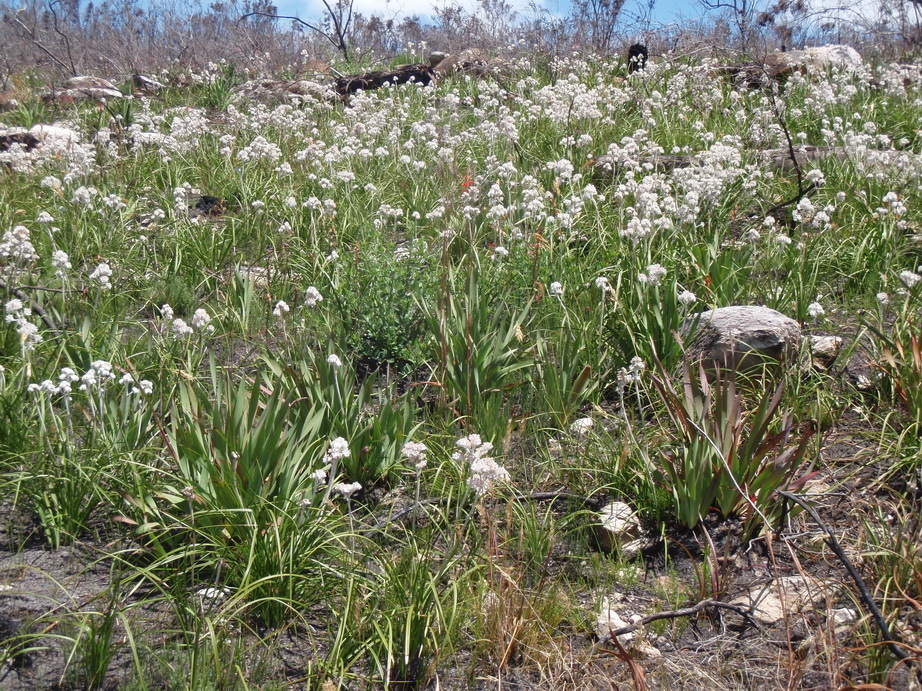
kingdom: Plantae
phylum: Tracheophyta
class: Liliopsida
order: Asparagales
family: Lanariaceae
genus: Lanaria
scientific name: Lanaria lanata
